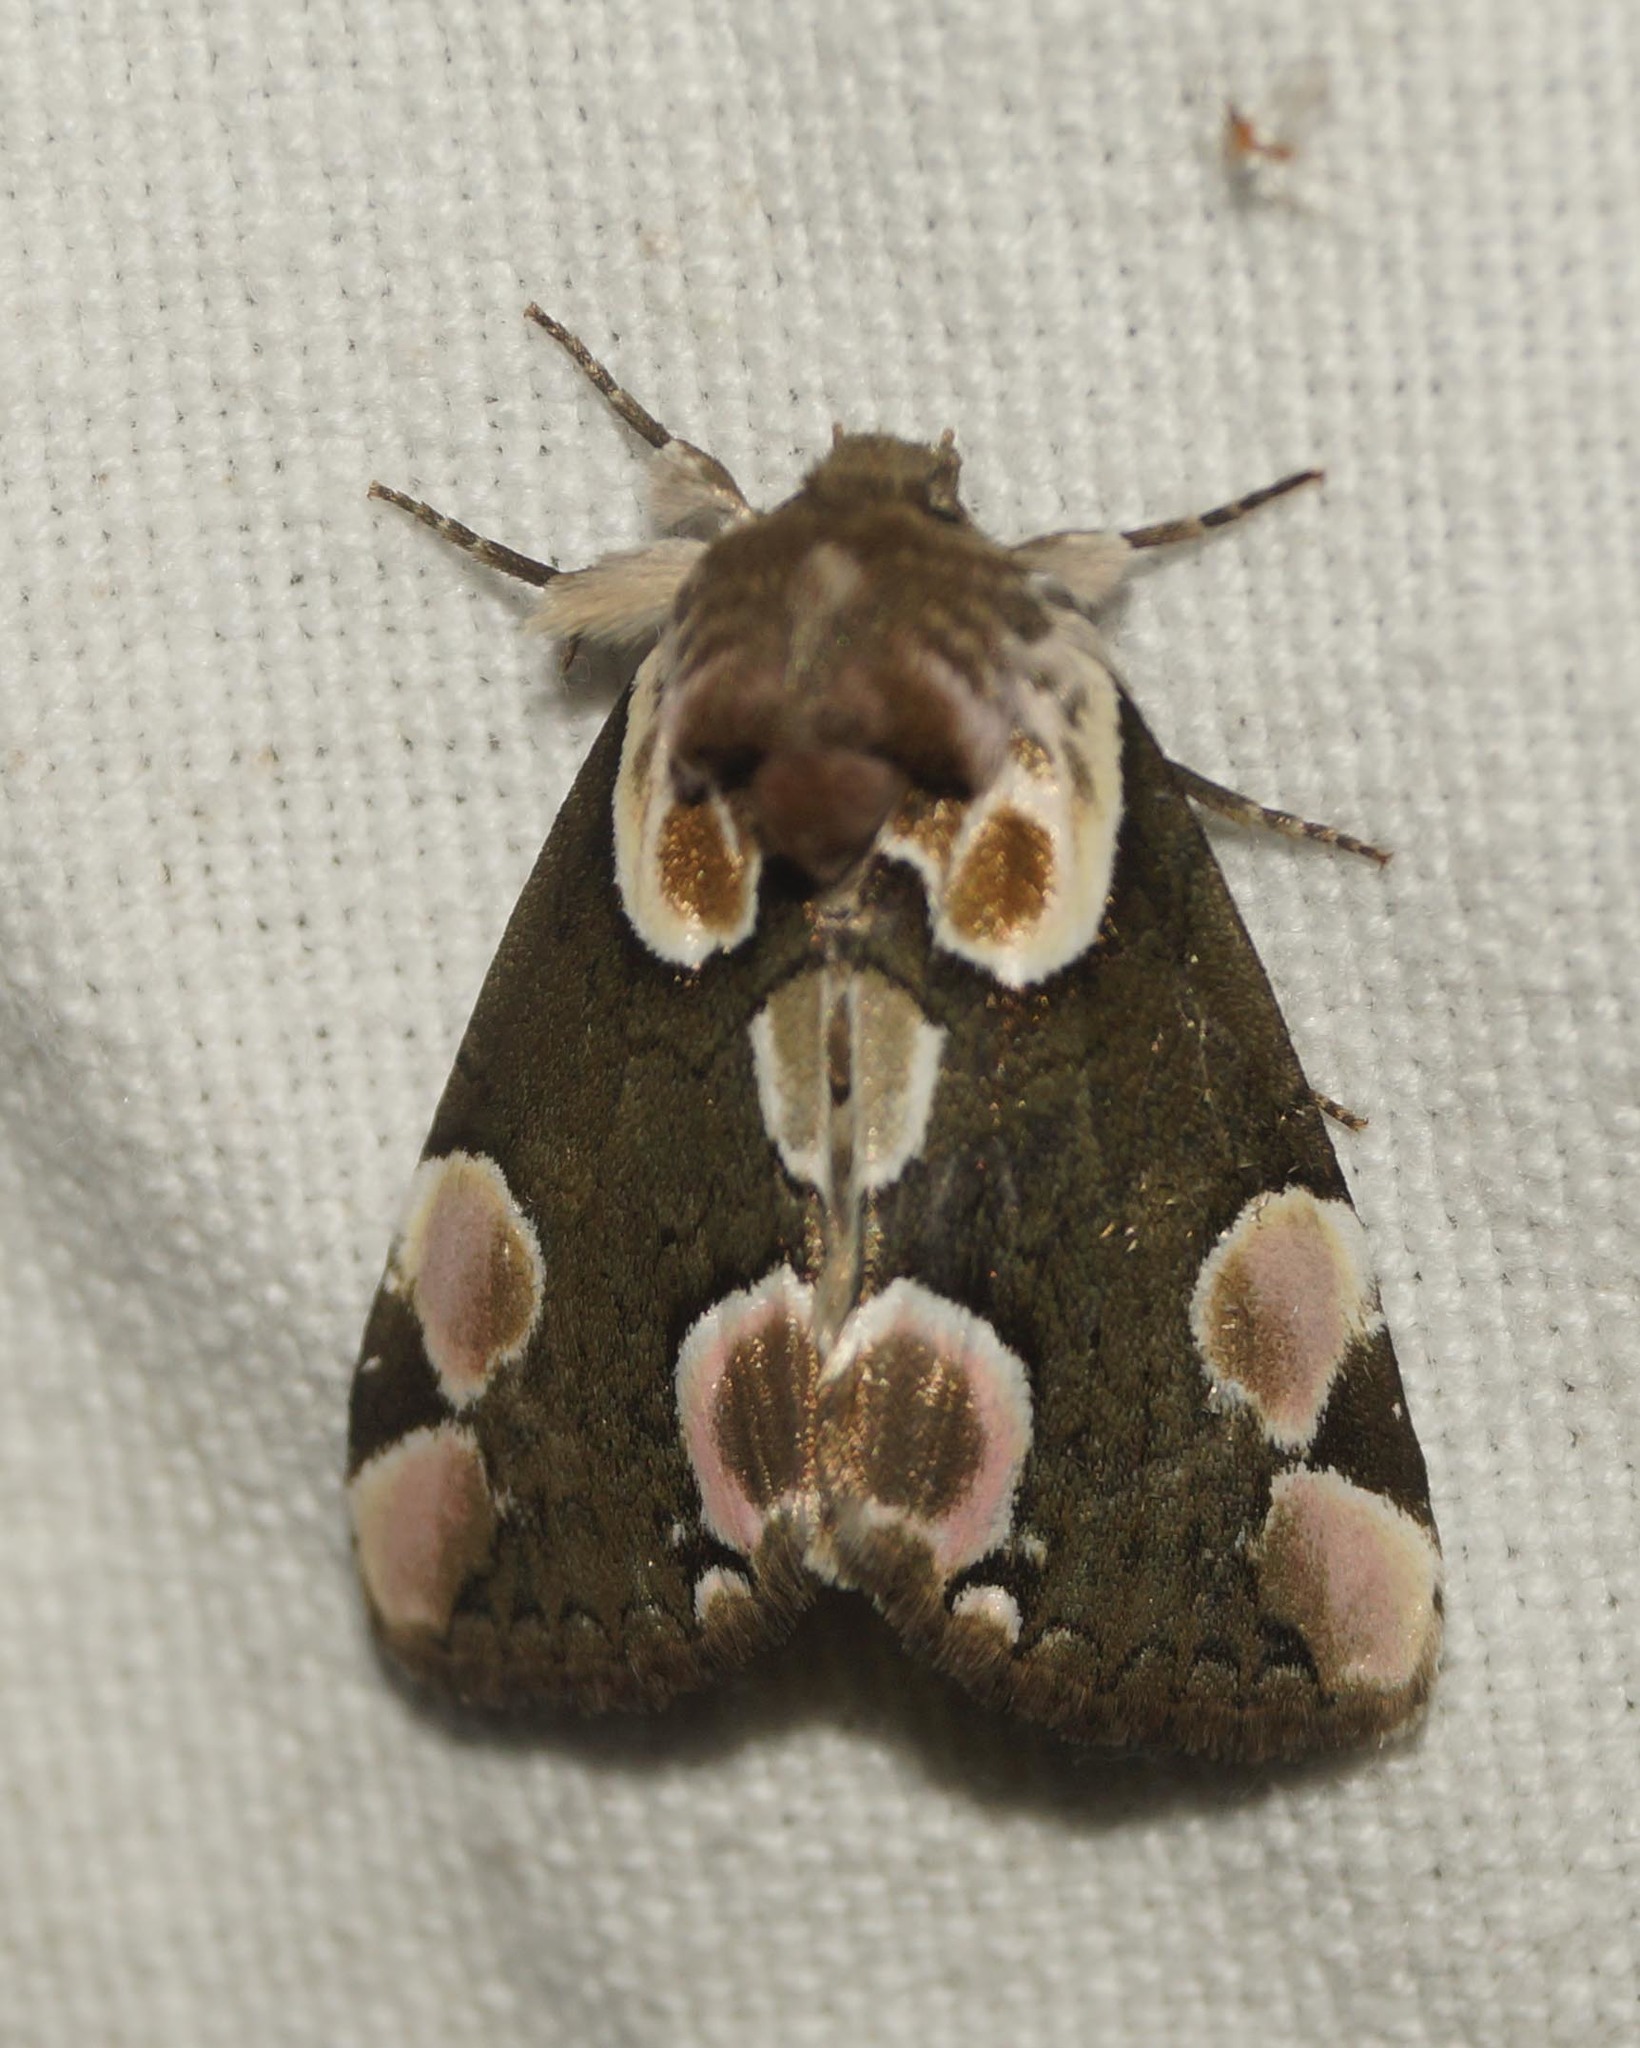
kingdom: Animalia
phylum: Arthropoda
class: Insecta
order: Lepidoptera
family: Drepanidae
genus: Thyatira
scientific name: Thyatira batis
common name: Peach blossom
